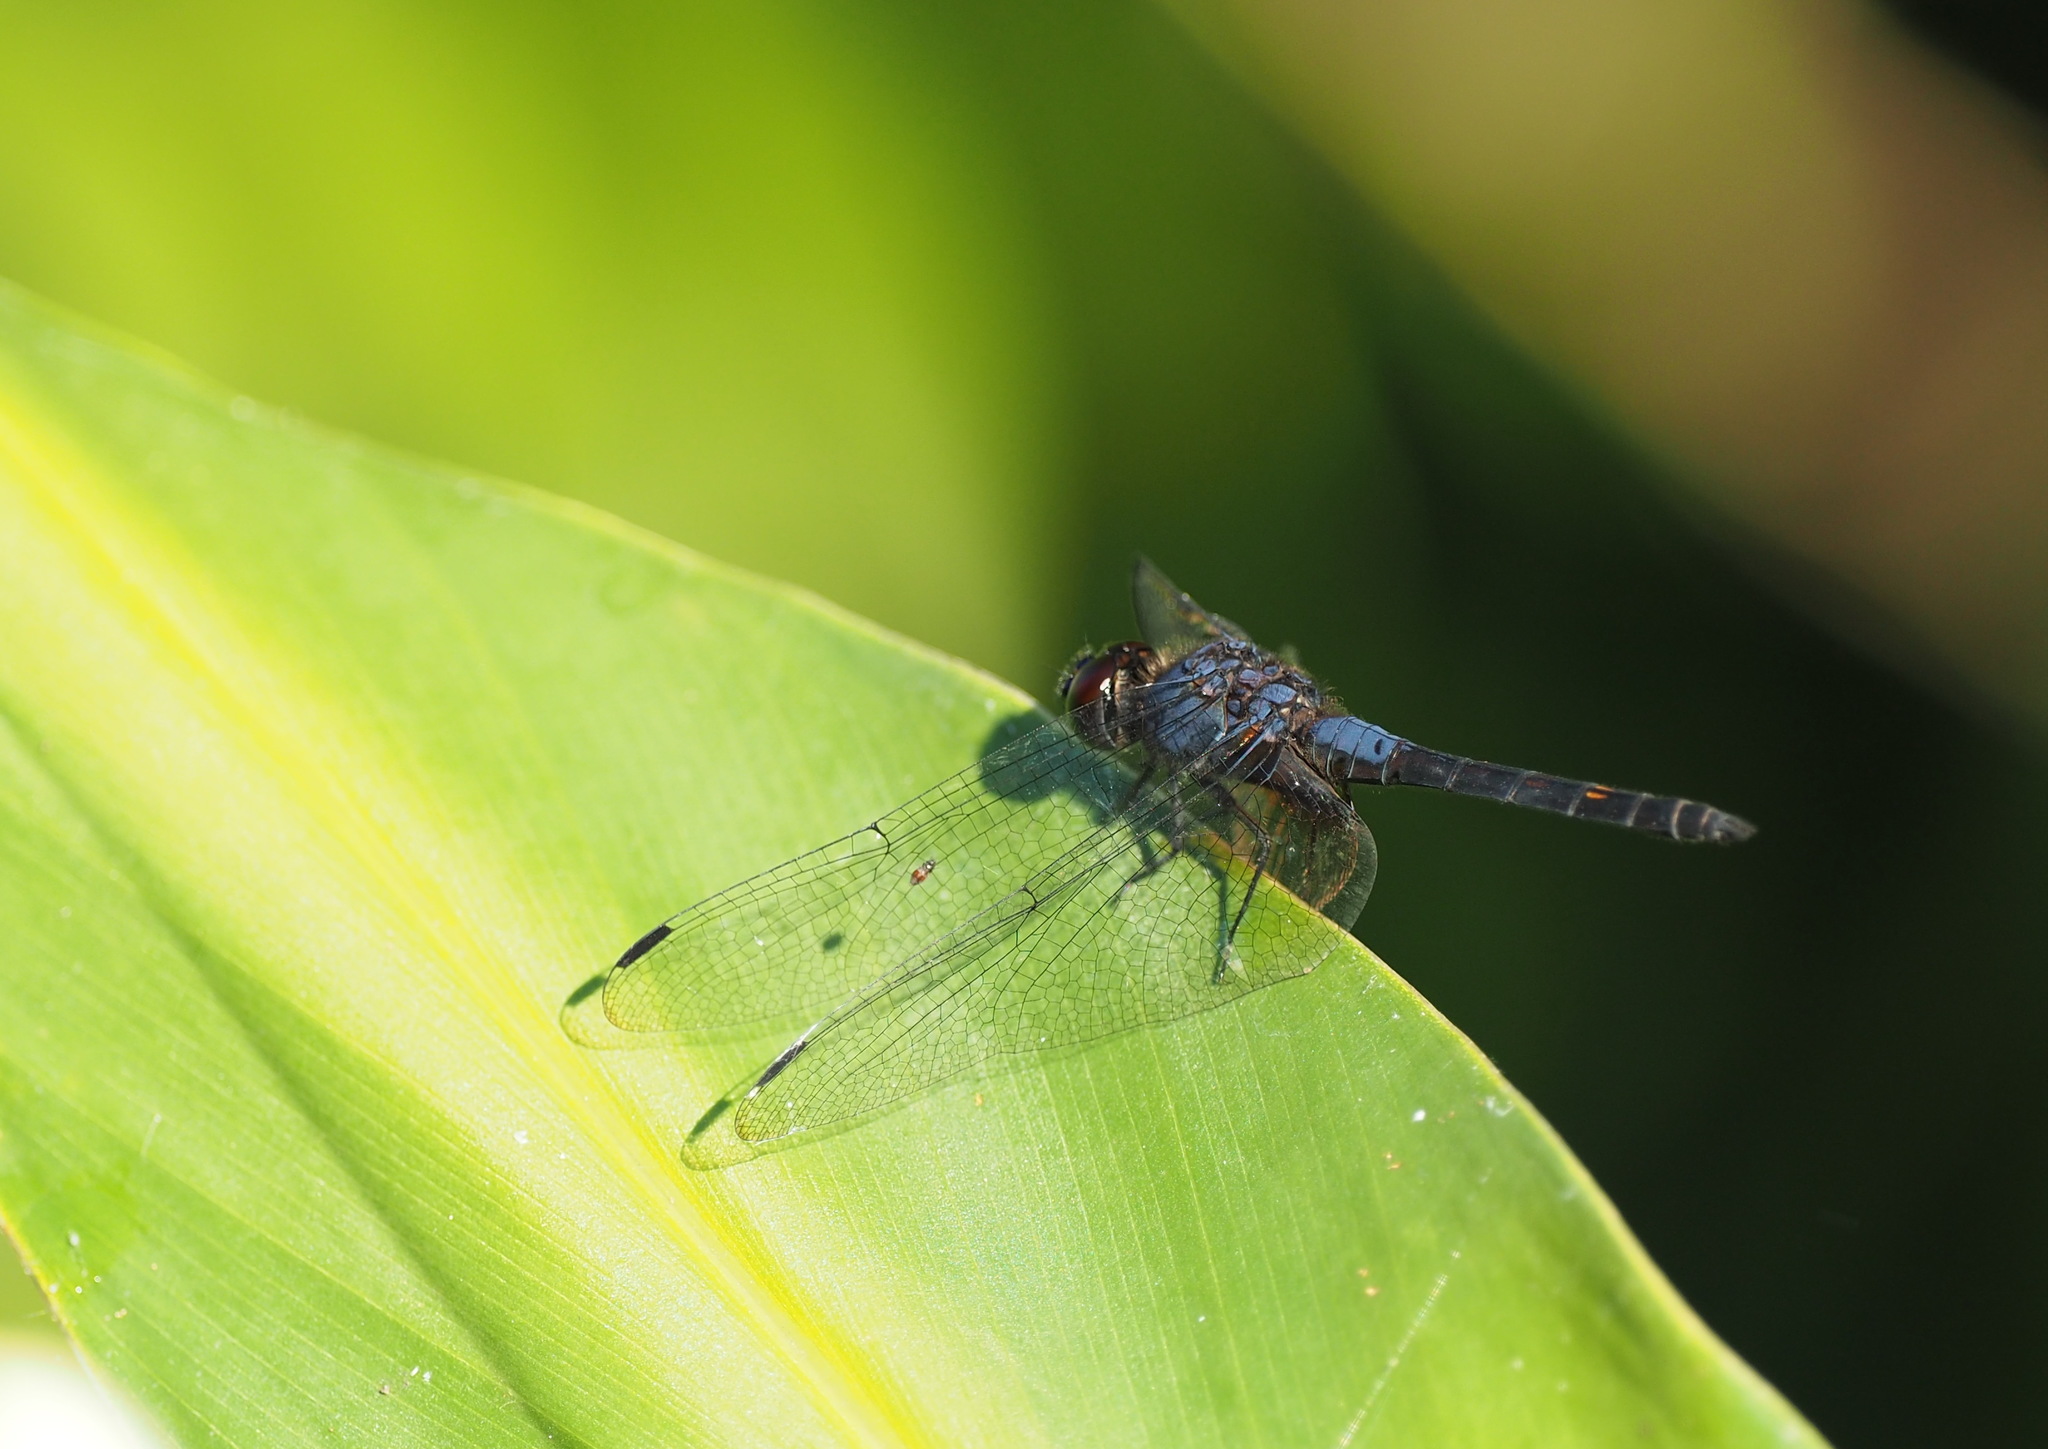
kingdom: Animalia
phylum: Arthropoda
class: Insecta
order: Odonata
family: Libellulidae
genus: Trithemis
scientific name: Trithemis festiva
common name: Indigo dropwing
